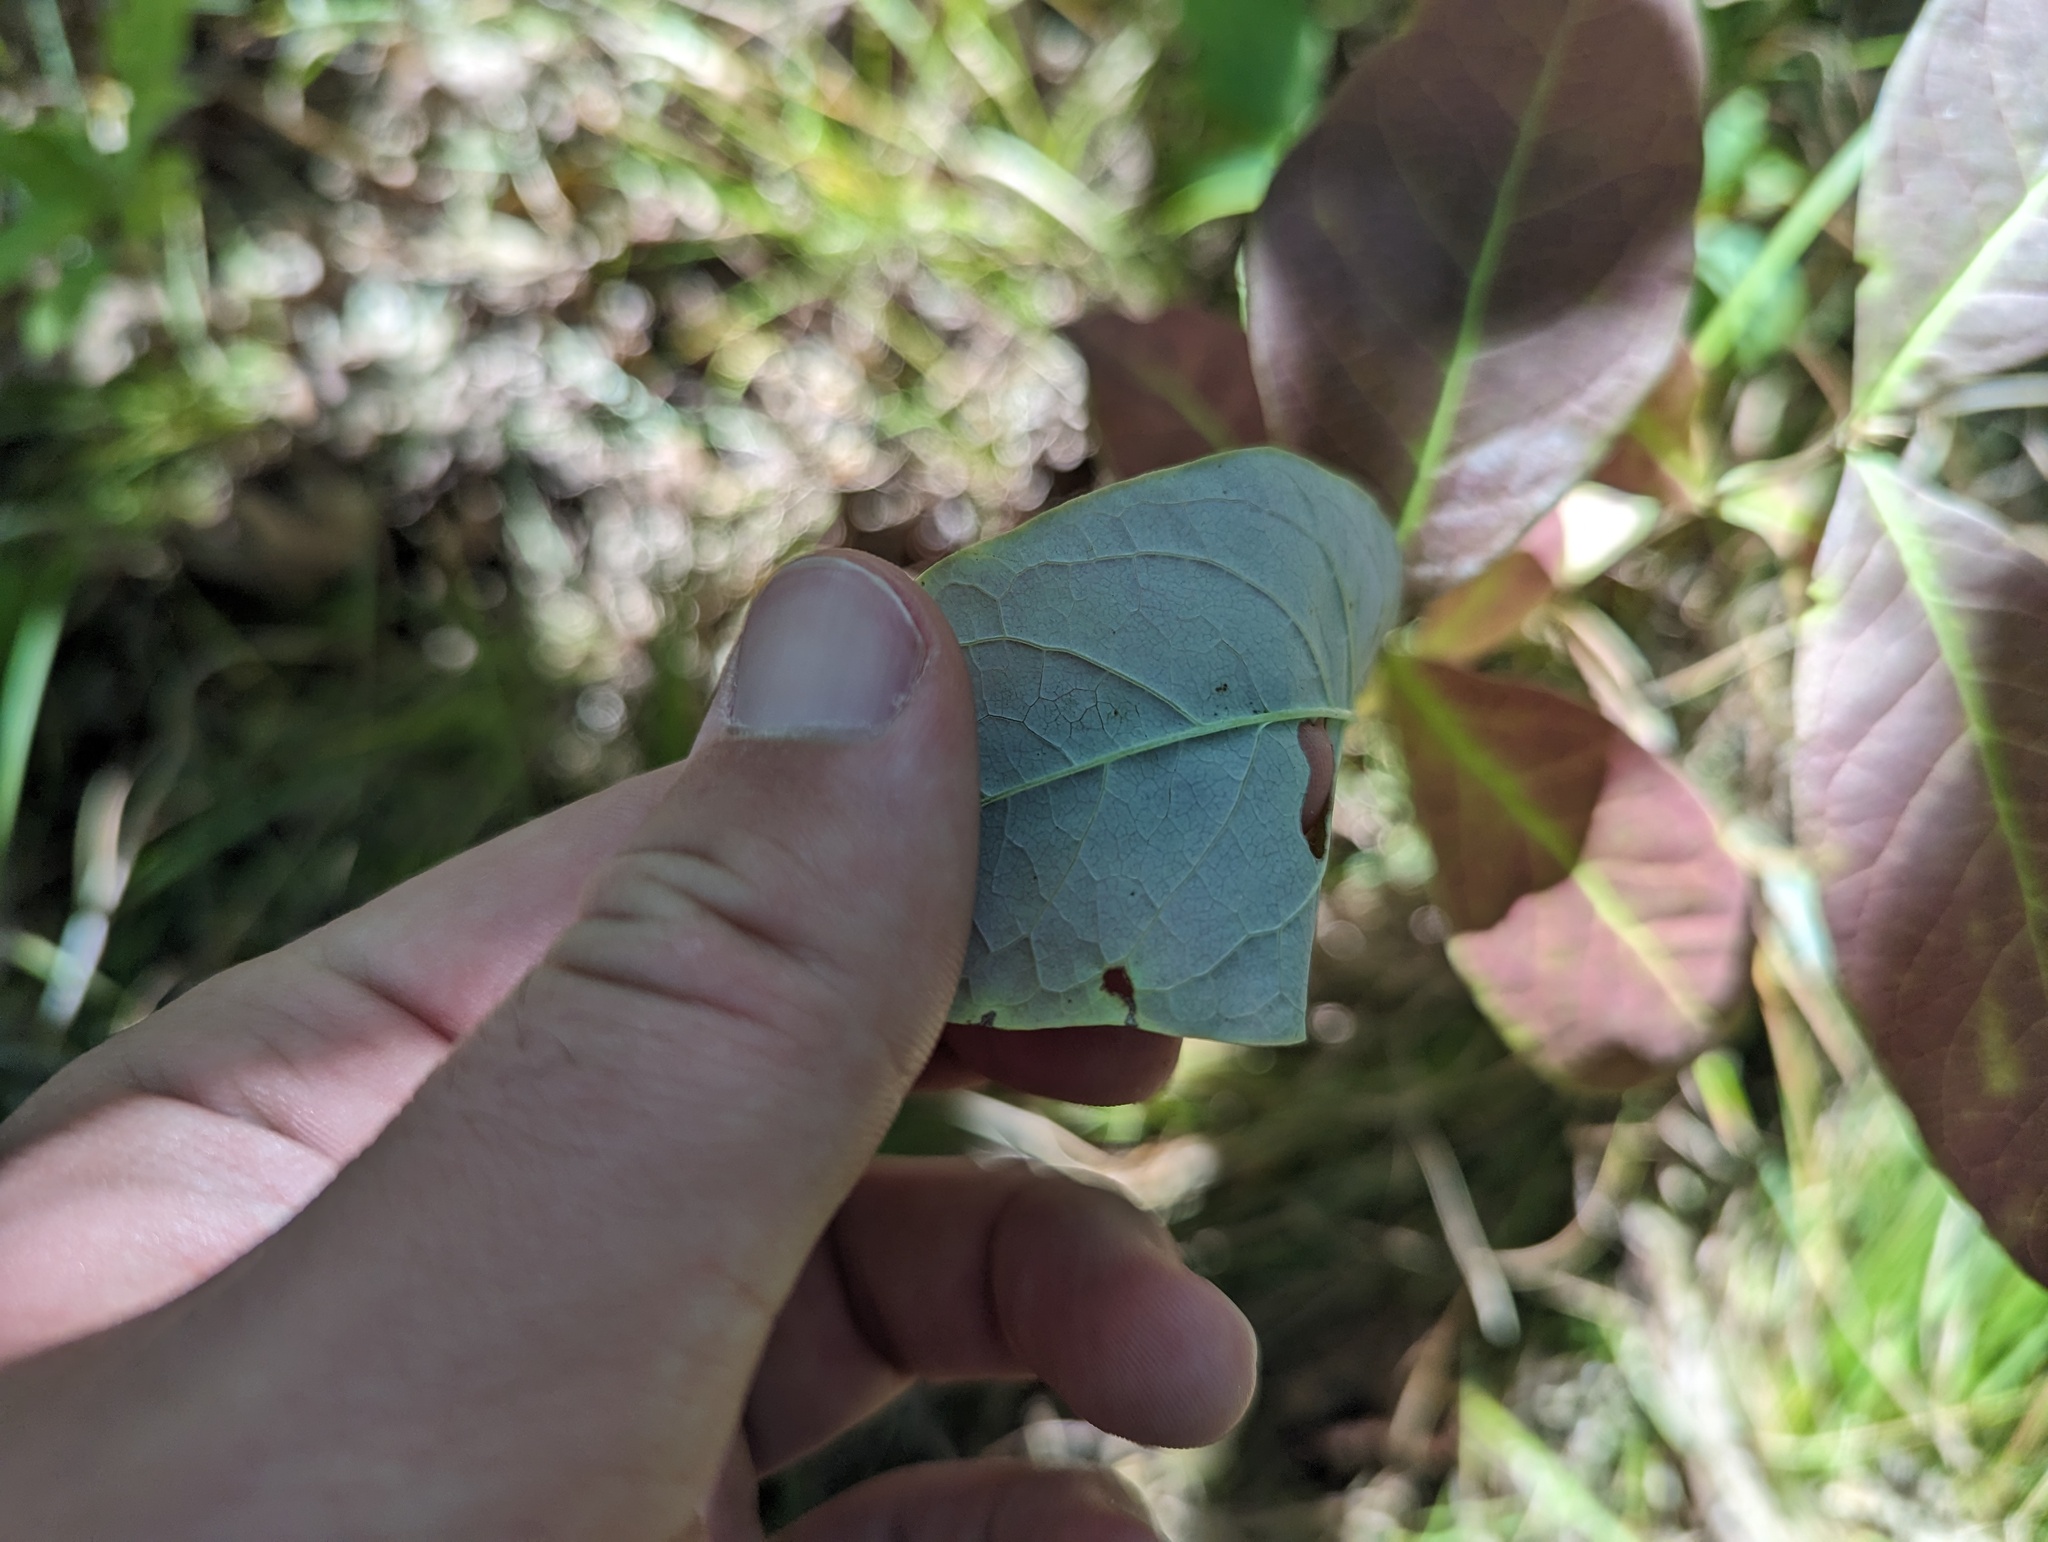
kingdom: Plantae
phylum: Tracheophyta
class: Magnoliopsida
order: Dipsacales
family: Caprifoliaceae
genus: Lonicera
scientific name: Lonicera dioica
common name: Limber honeysuckle
